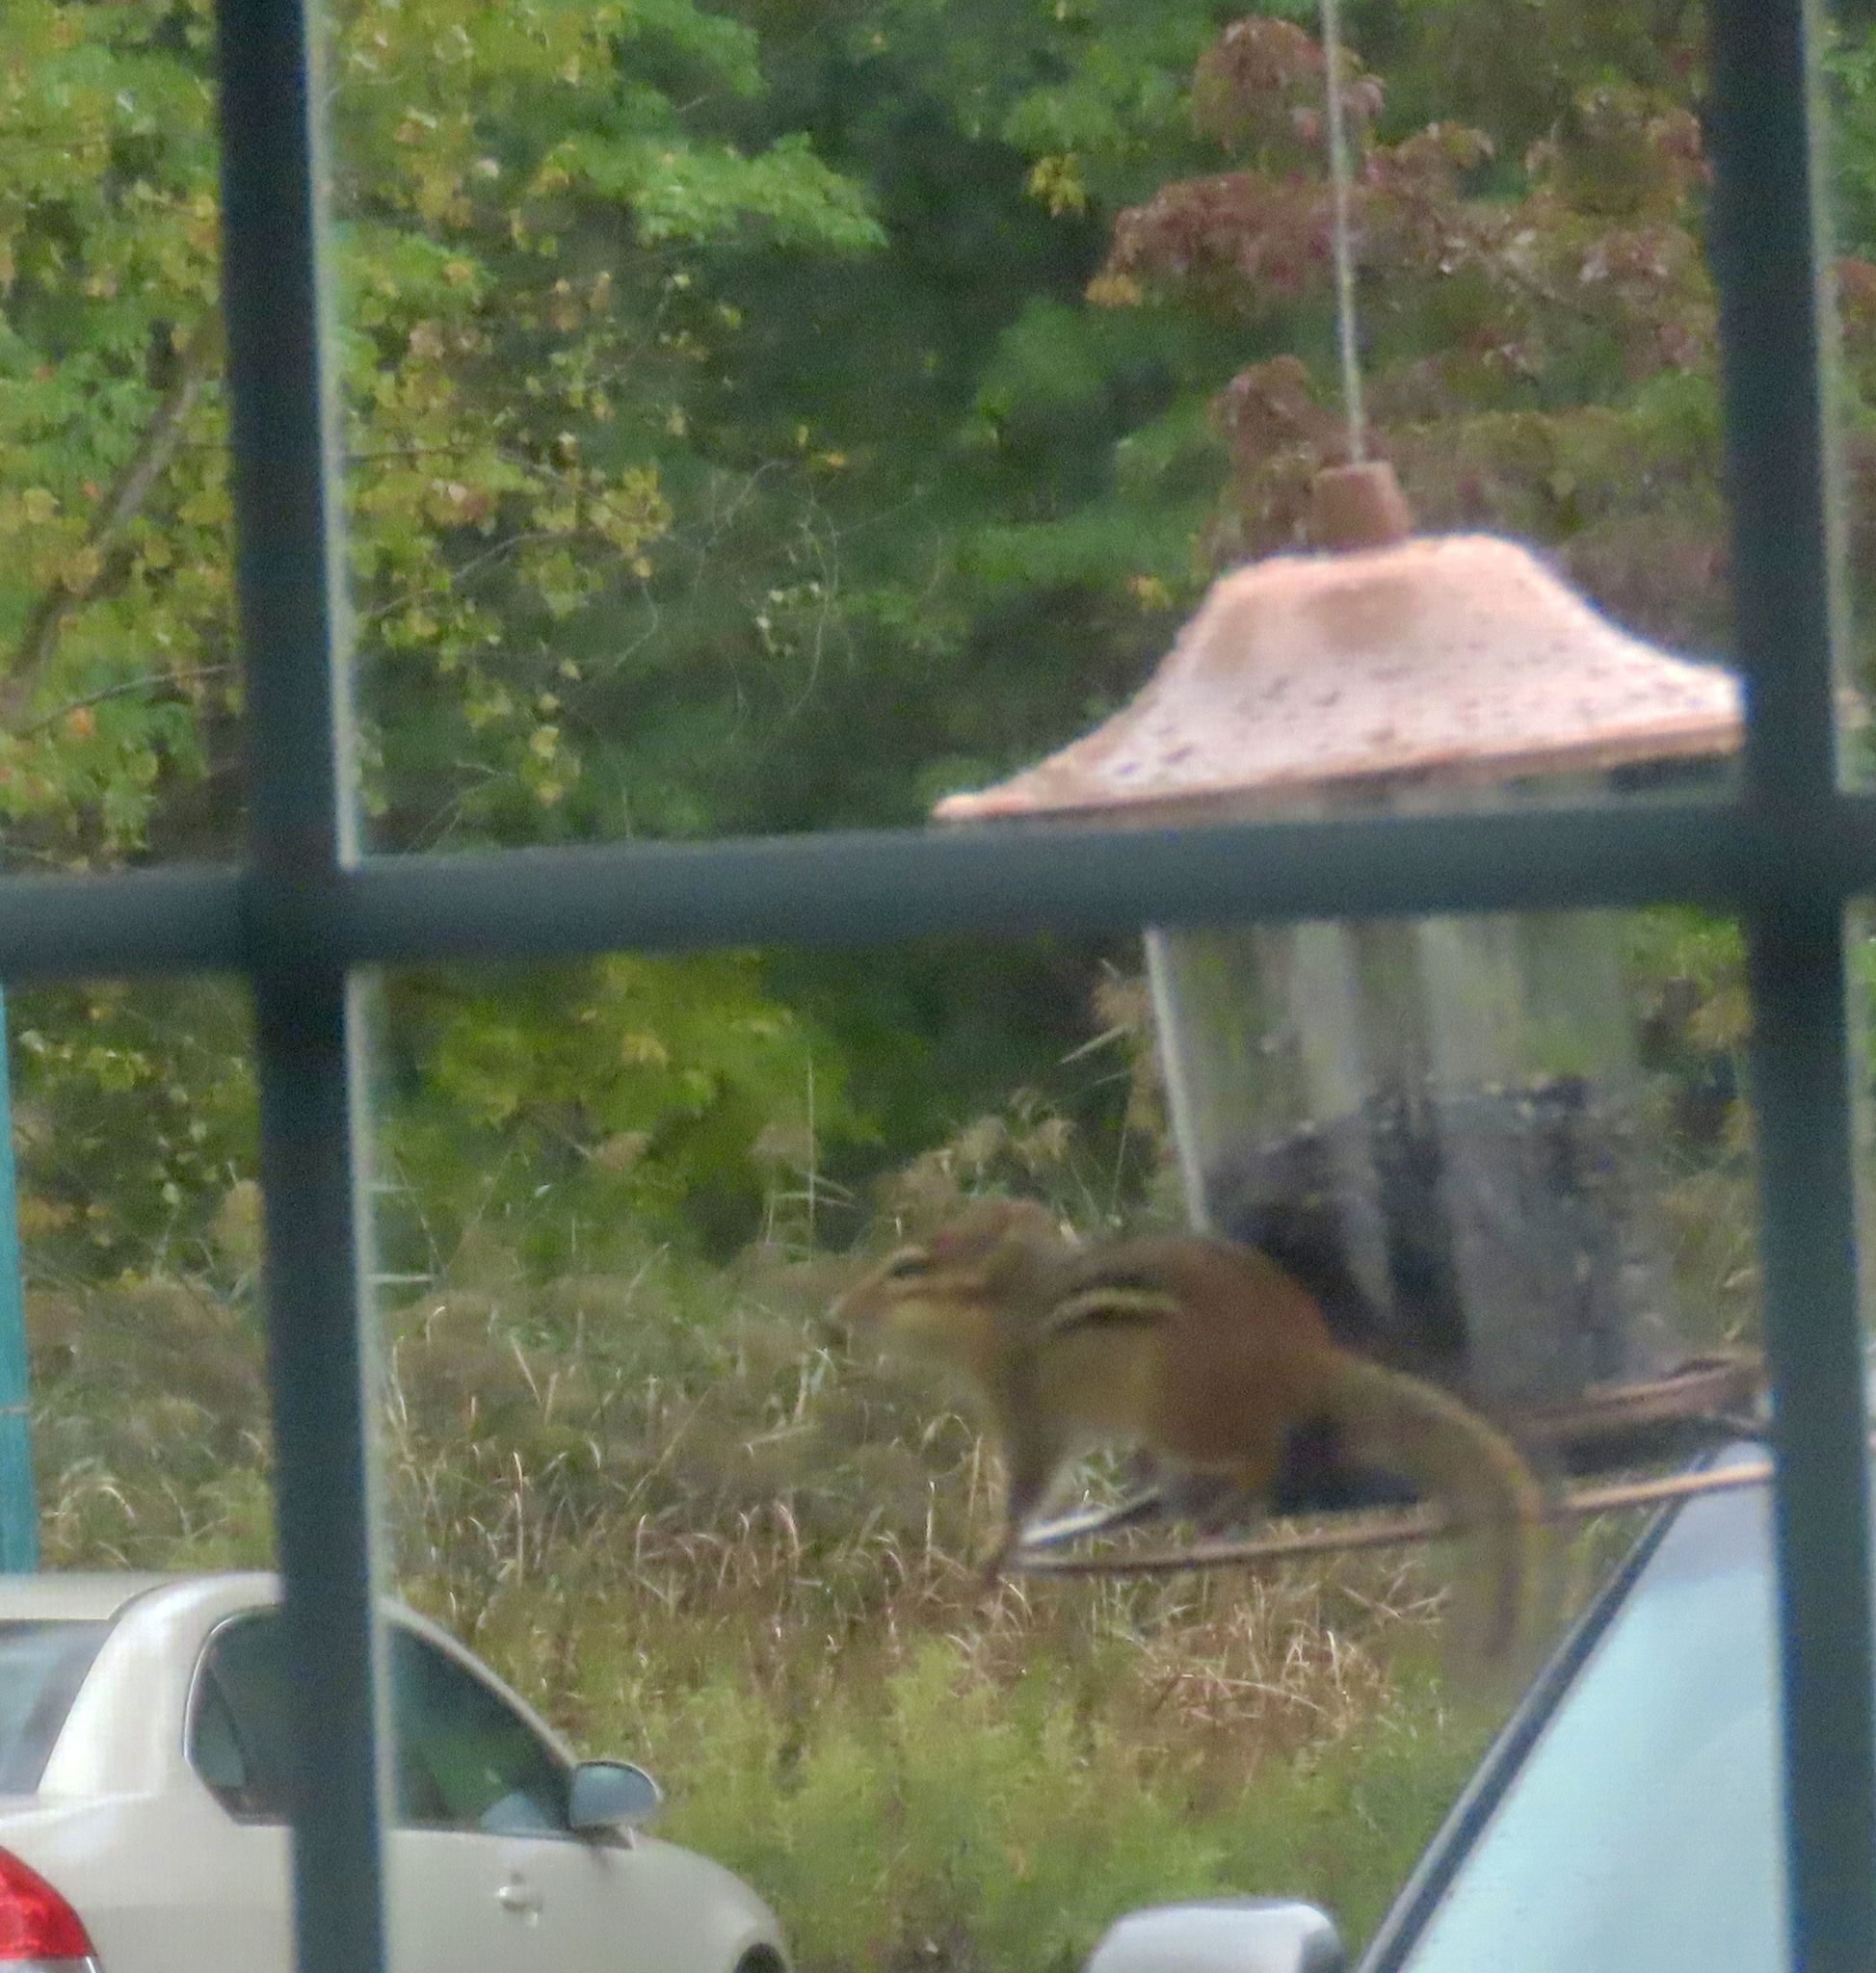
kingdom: Animalia
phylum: Chordata
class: Mammalia
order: Rodentia
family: Sciuridae
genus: Tamias
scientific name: Tamias striatus
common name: Eastern chipmunk
